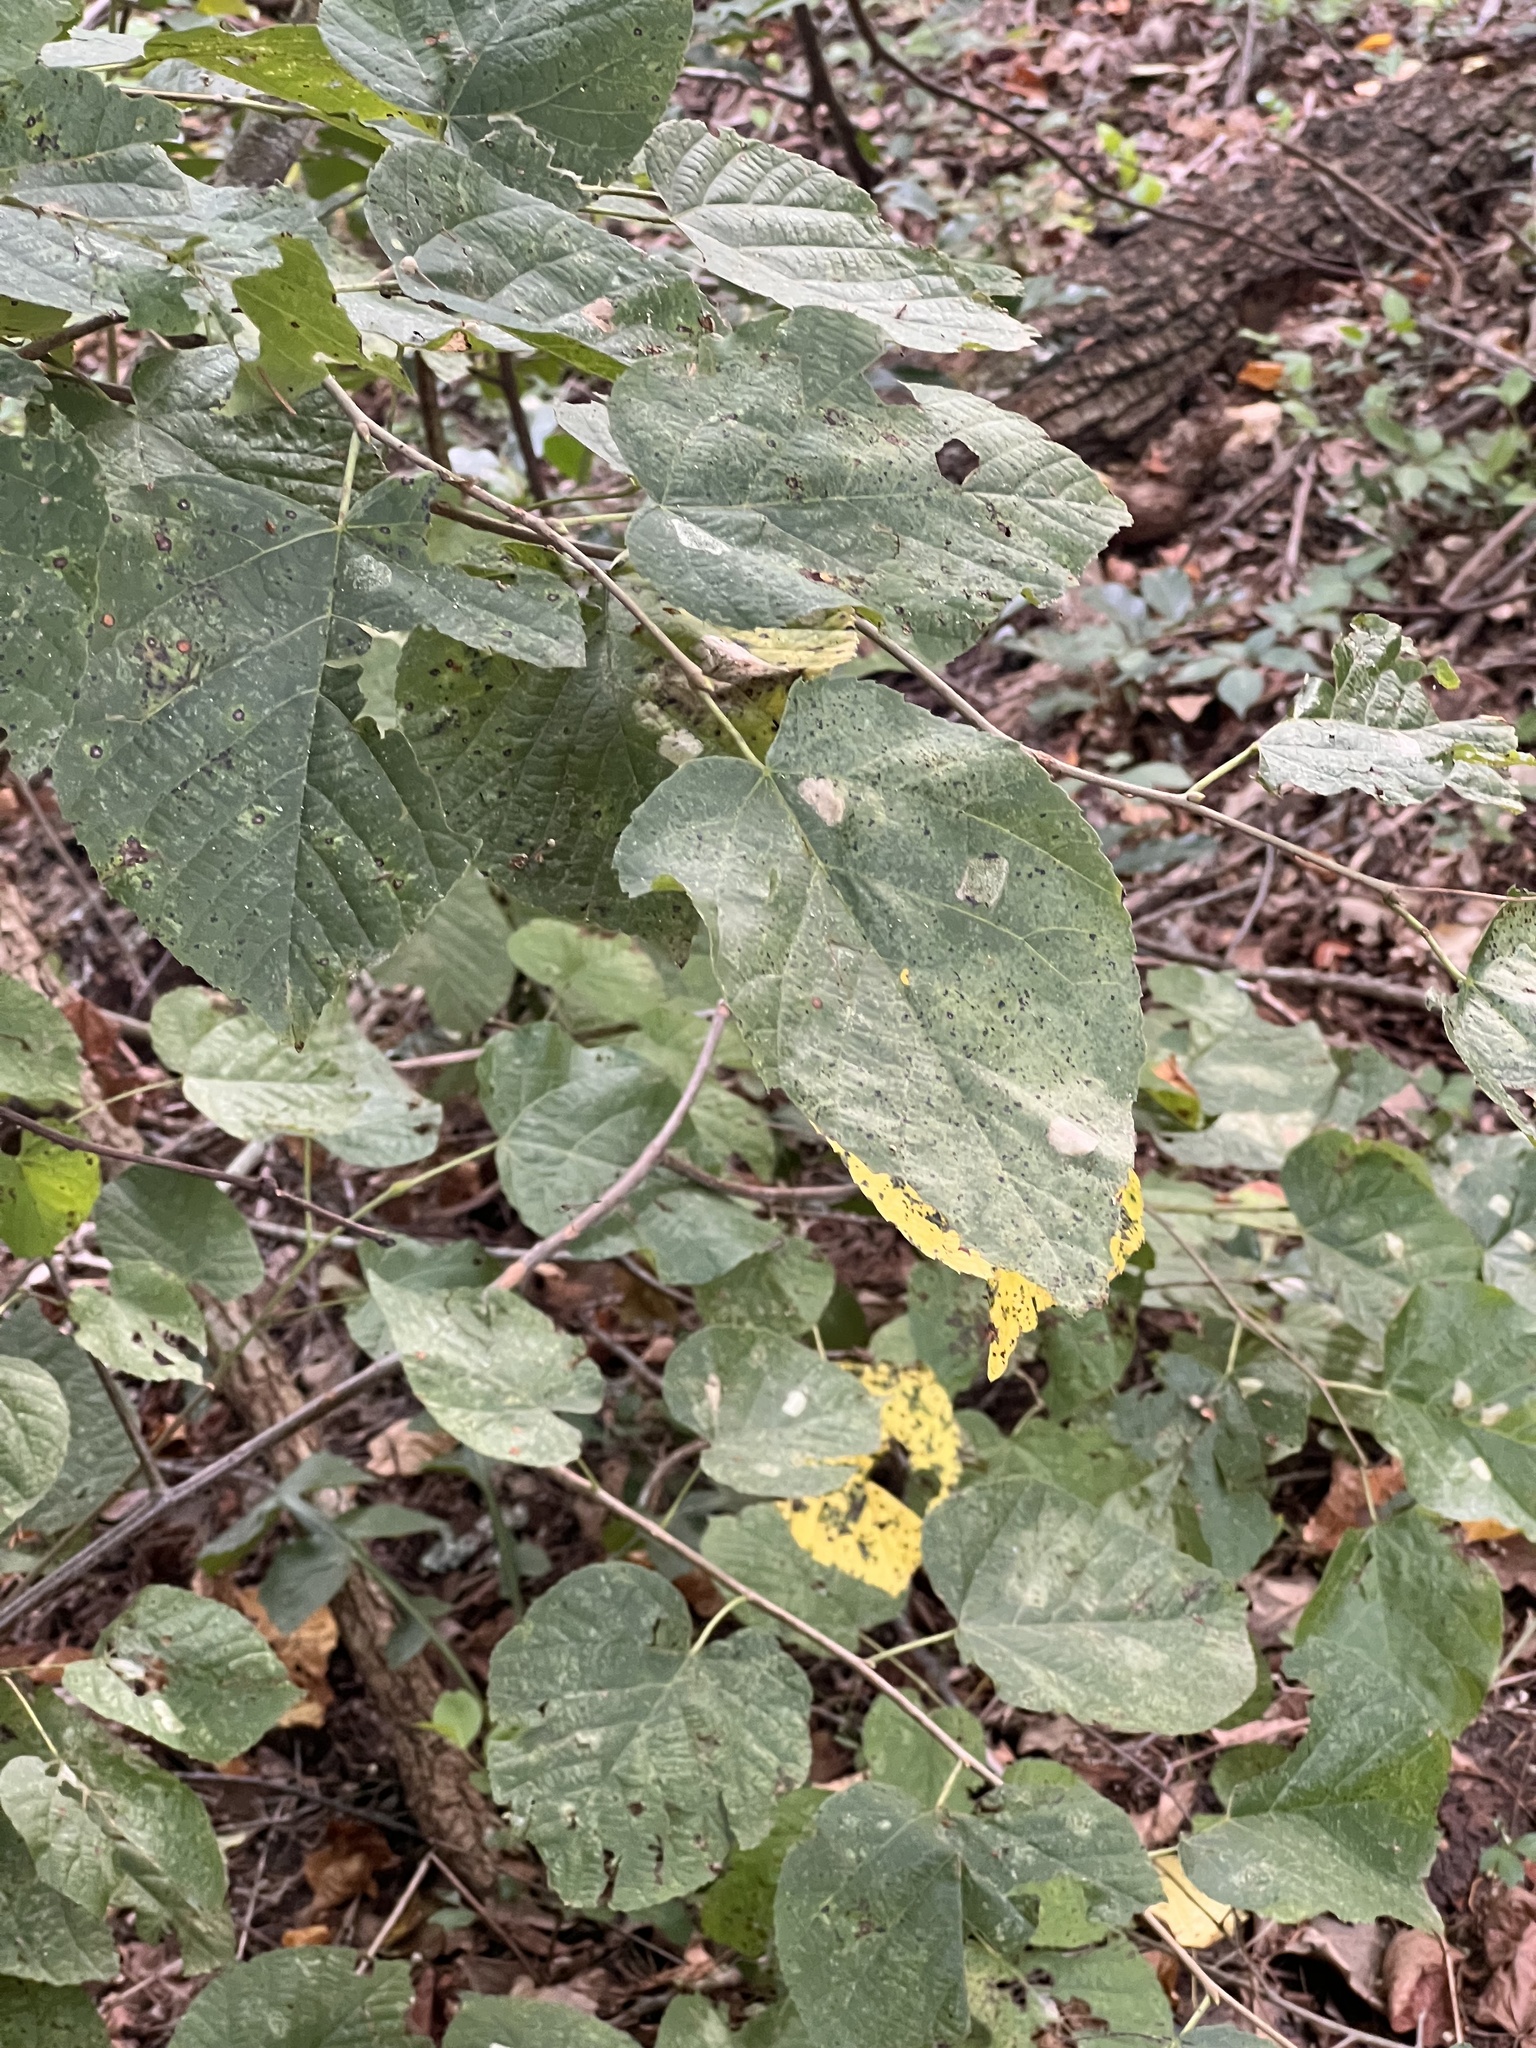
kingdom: Plantae
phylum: Tracheophyta
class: Magnoliopsida
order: Malvales
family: Malvaceae
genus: Tilia
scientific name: Tilia americana
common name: Basswood
